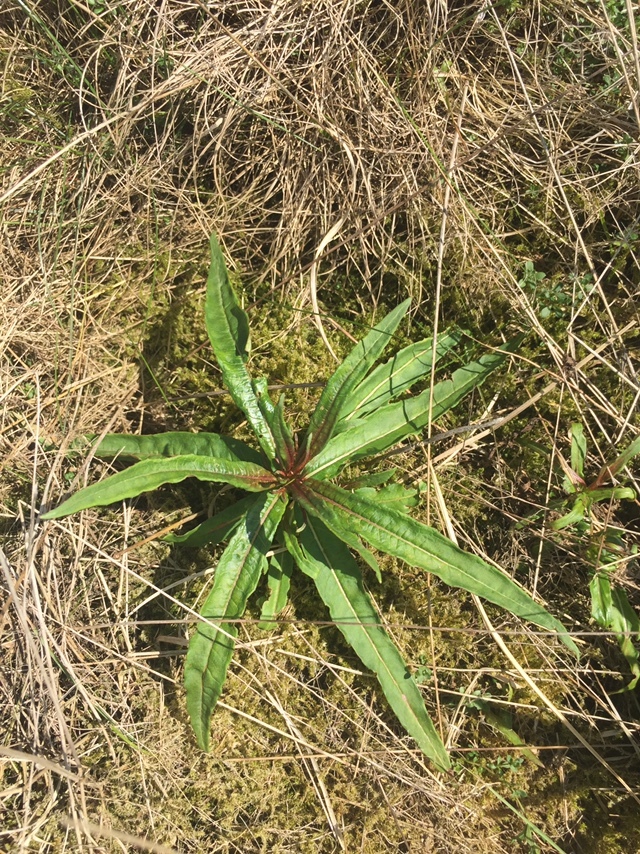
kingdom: Plantae
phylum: Tracheophyta
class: Magnoliopsida
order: Myrtales
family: Onagraceae
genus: Chamaenerion
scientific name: Chamaenerion angustifolium
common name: Fireweed
